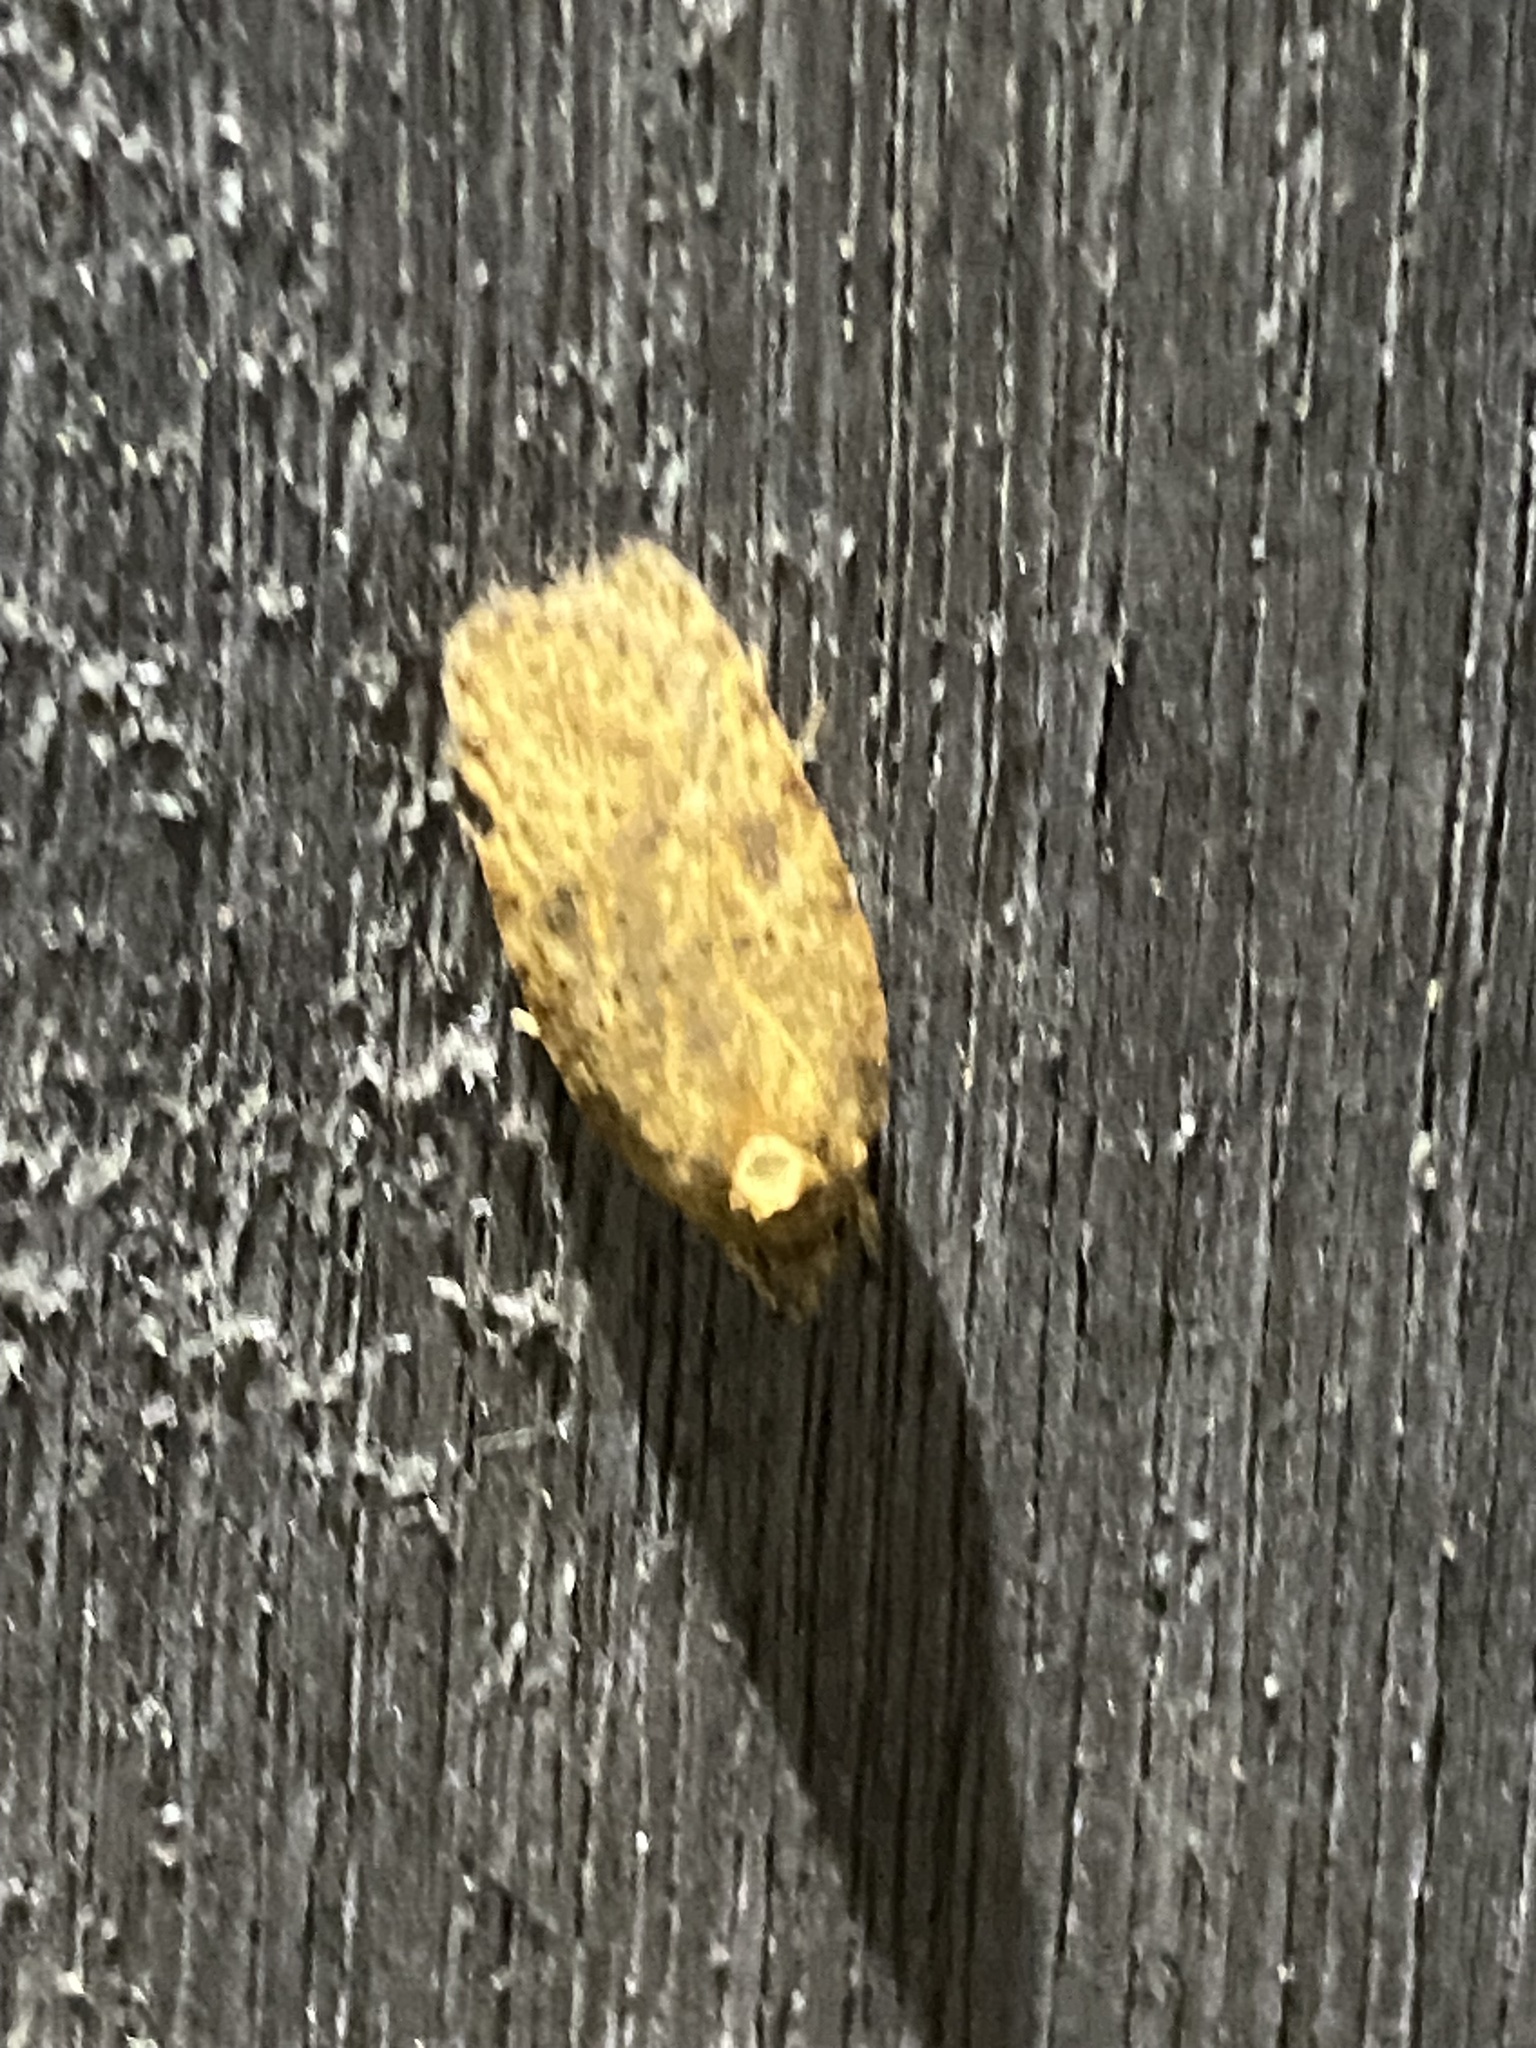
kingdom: Animalia
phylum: Arthropoda
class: Insecta
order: Lepidoptera
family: Depressariidae
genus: Agonopterix
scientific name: Agonopterix pulvipennella
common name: Goldenrod leafffolder
